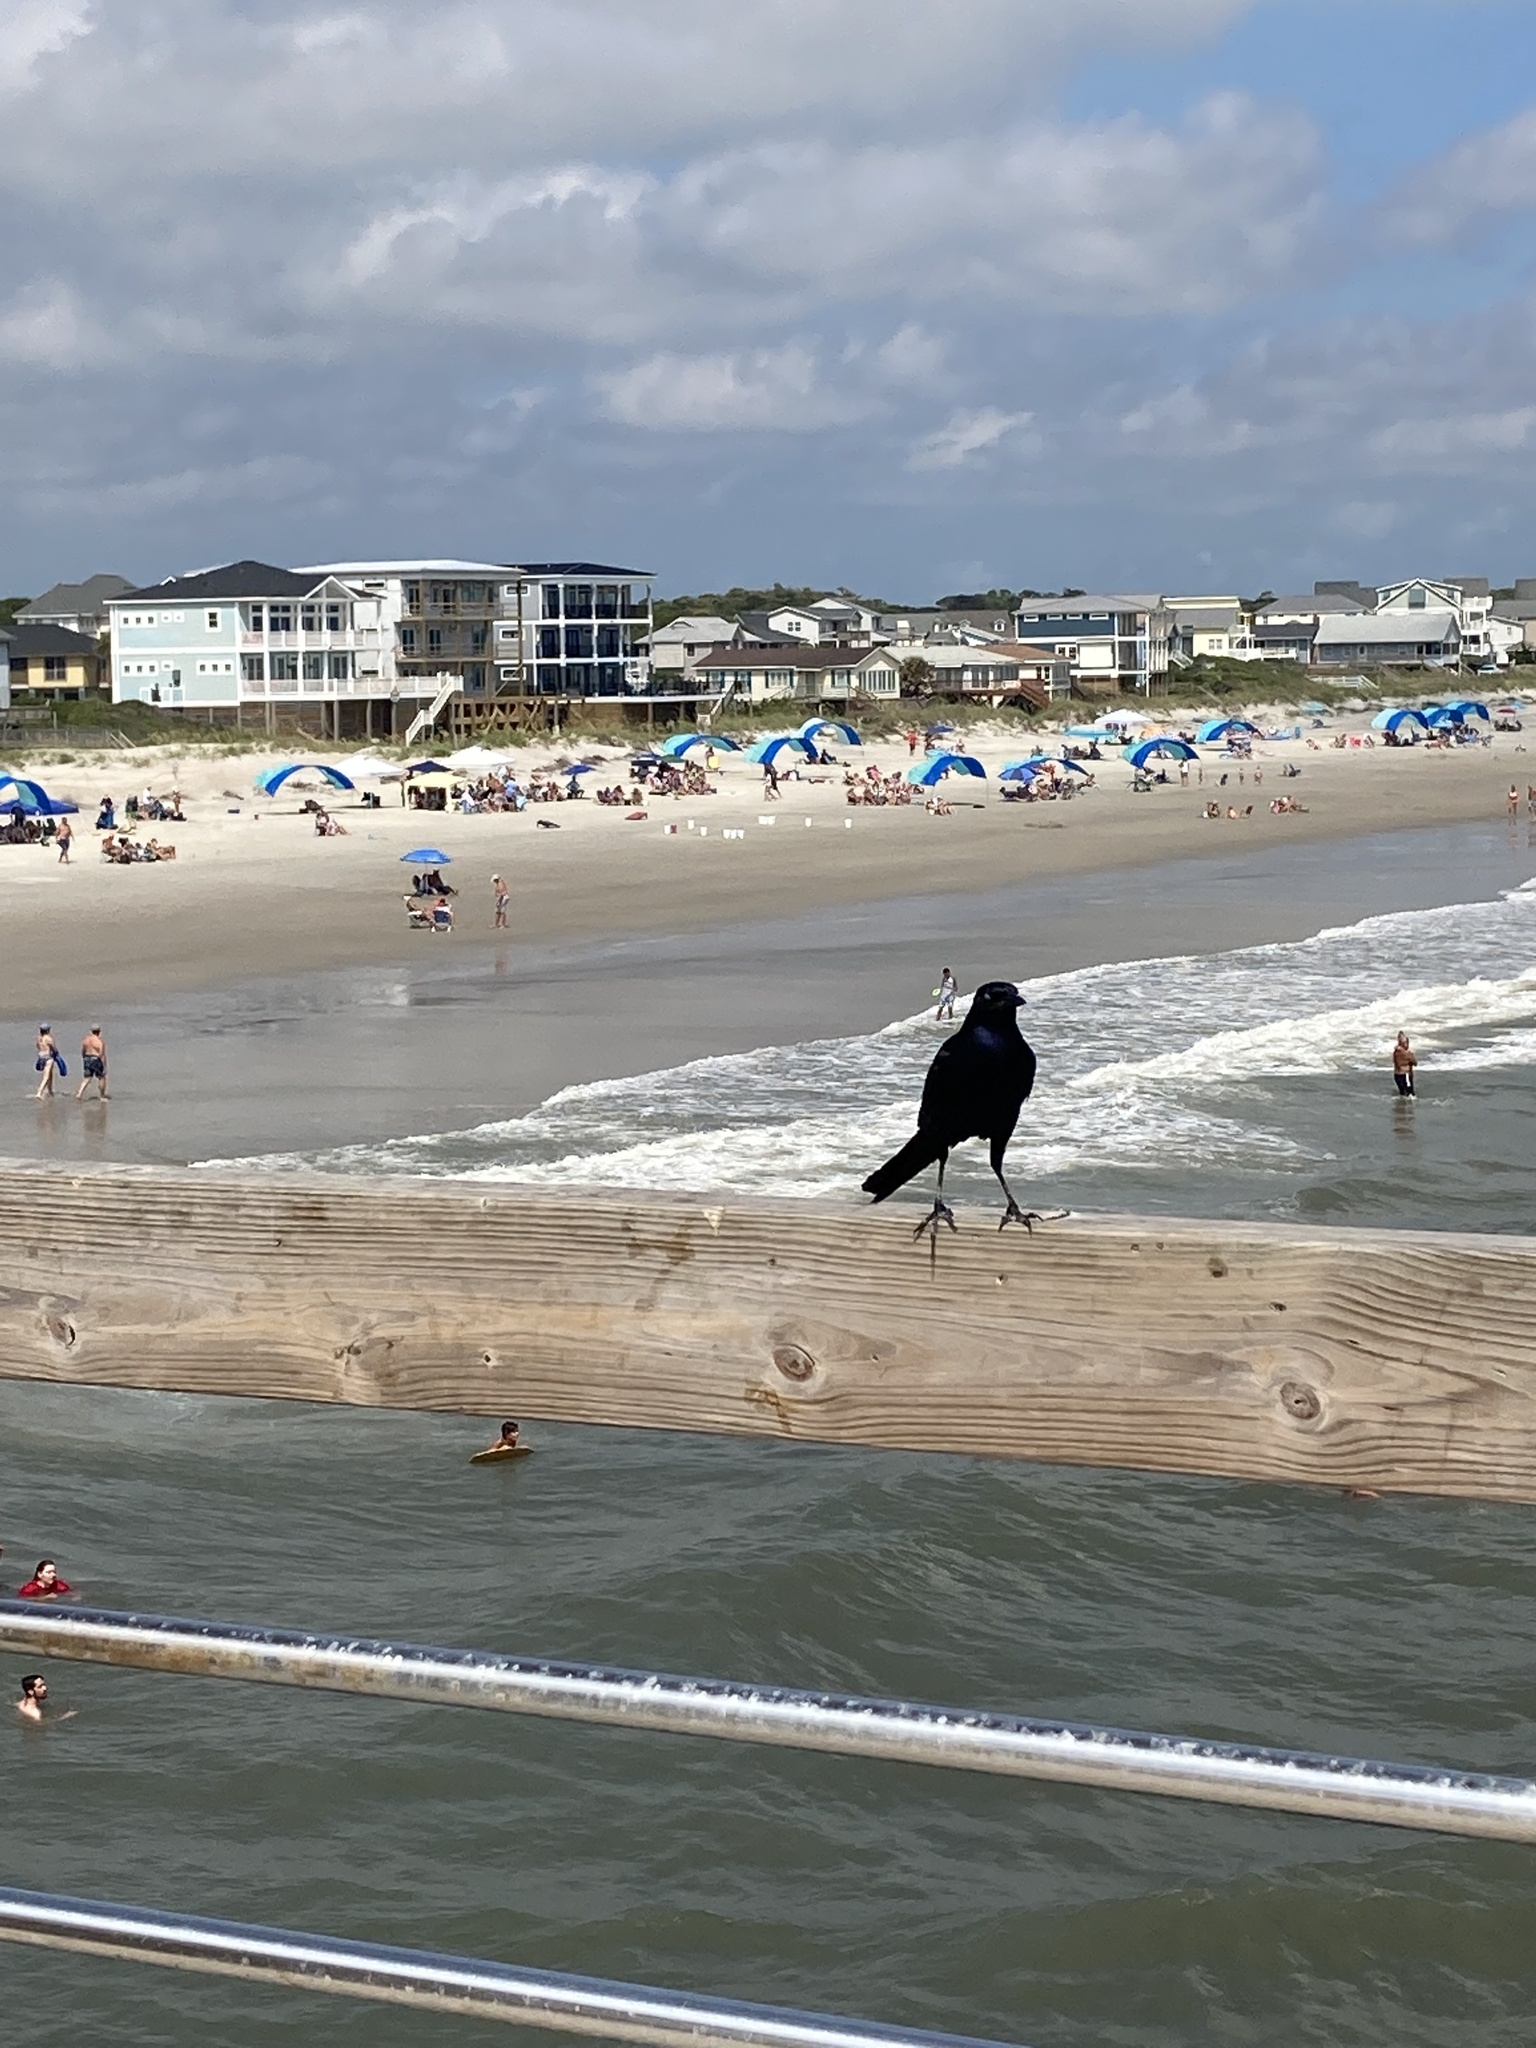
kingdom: Animalia
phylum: Chordata
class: Aves
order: Passeriformes
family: Icteridae
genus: Quiscalus
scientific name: Quiscalus major
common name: Boat-tailed grackle
